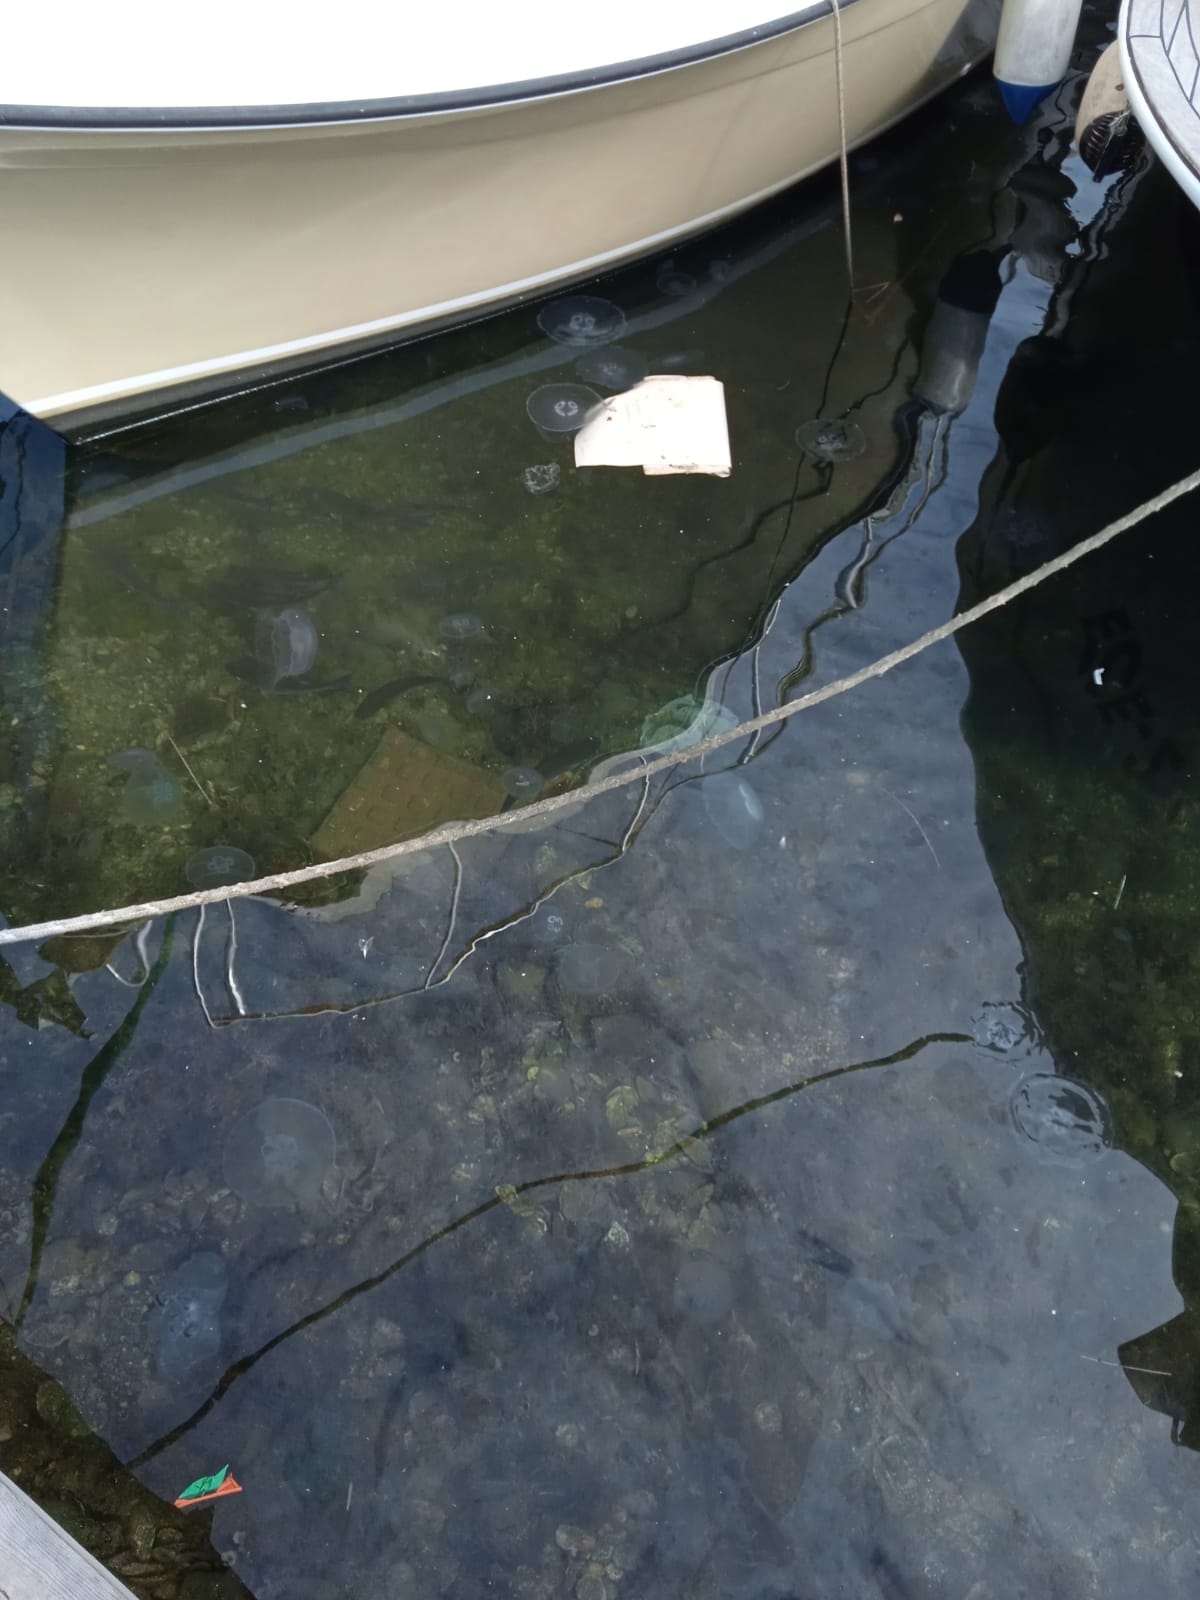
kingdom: Animalia
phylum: Cnidaria
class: Scyphozoa
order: Semaeostomeae
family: Ulmaridae
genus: Aurelia
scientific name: Aurelia aurita
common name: Moon jellyfish
